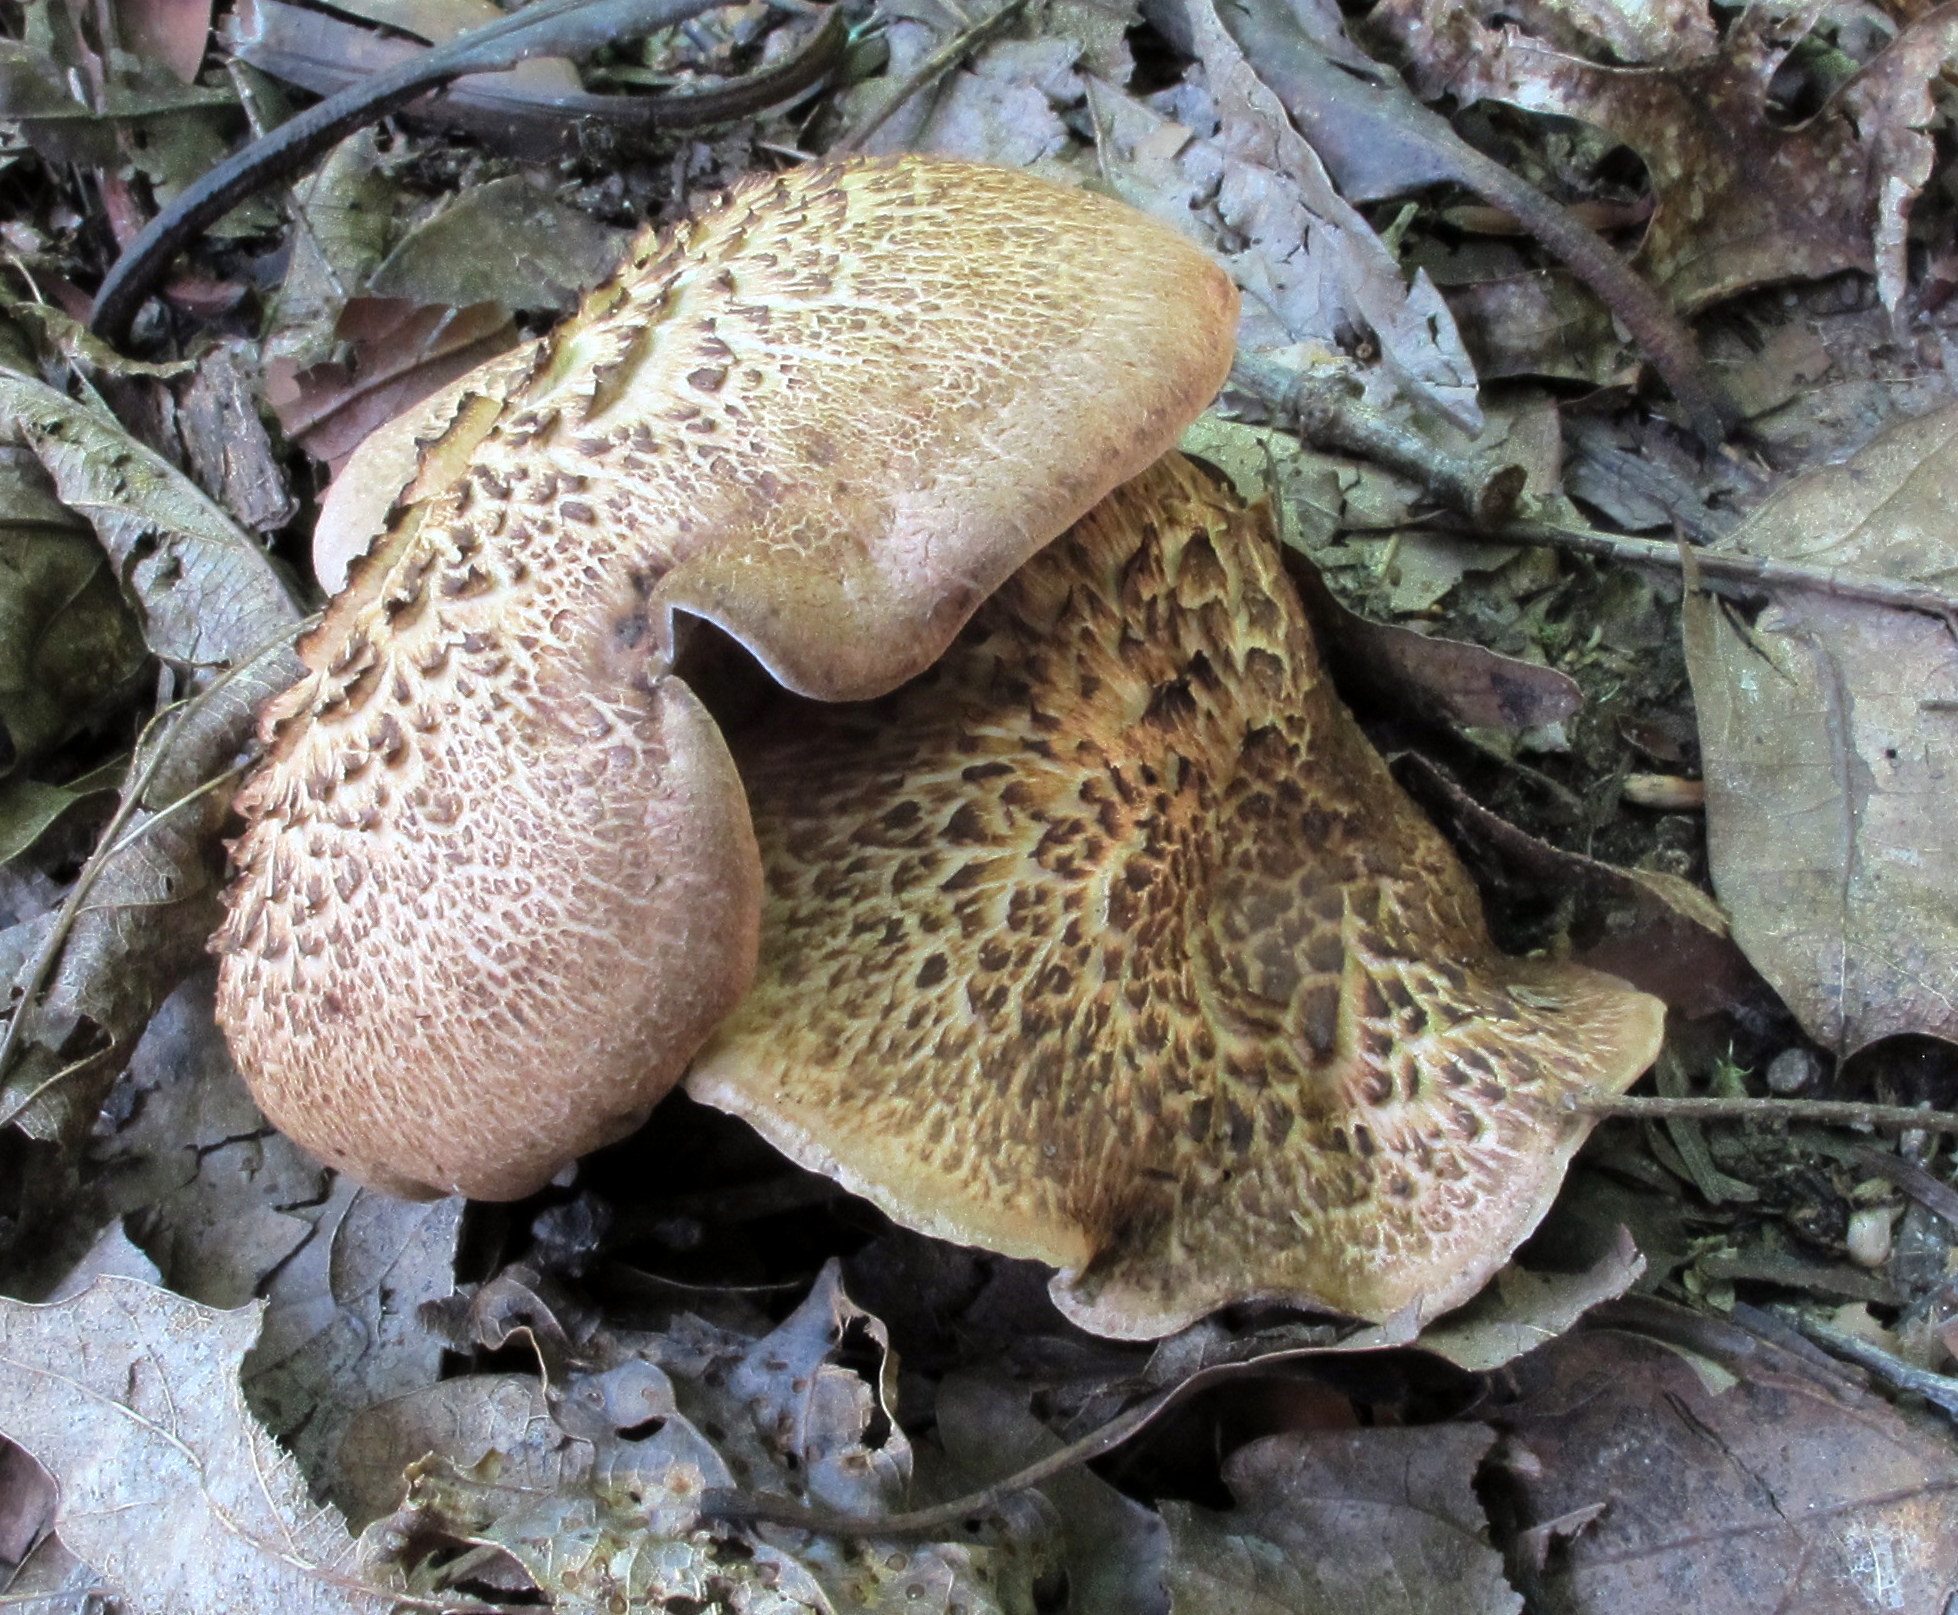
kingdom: Fungi
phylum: Basidiomycota
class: Agaricomycetes
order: Thelephorales
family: Bankeraceae
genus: Hydnellum
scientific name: Hydnellum scabrosum
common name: Bitter tooth
